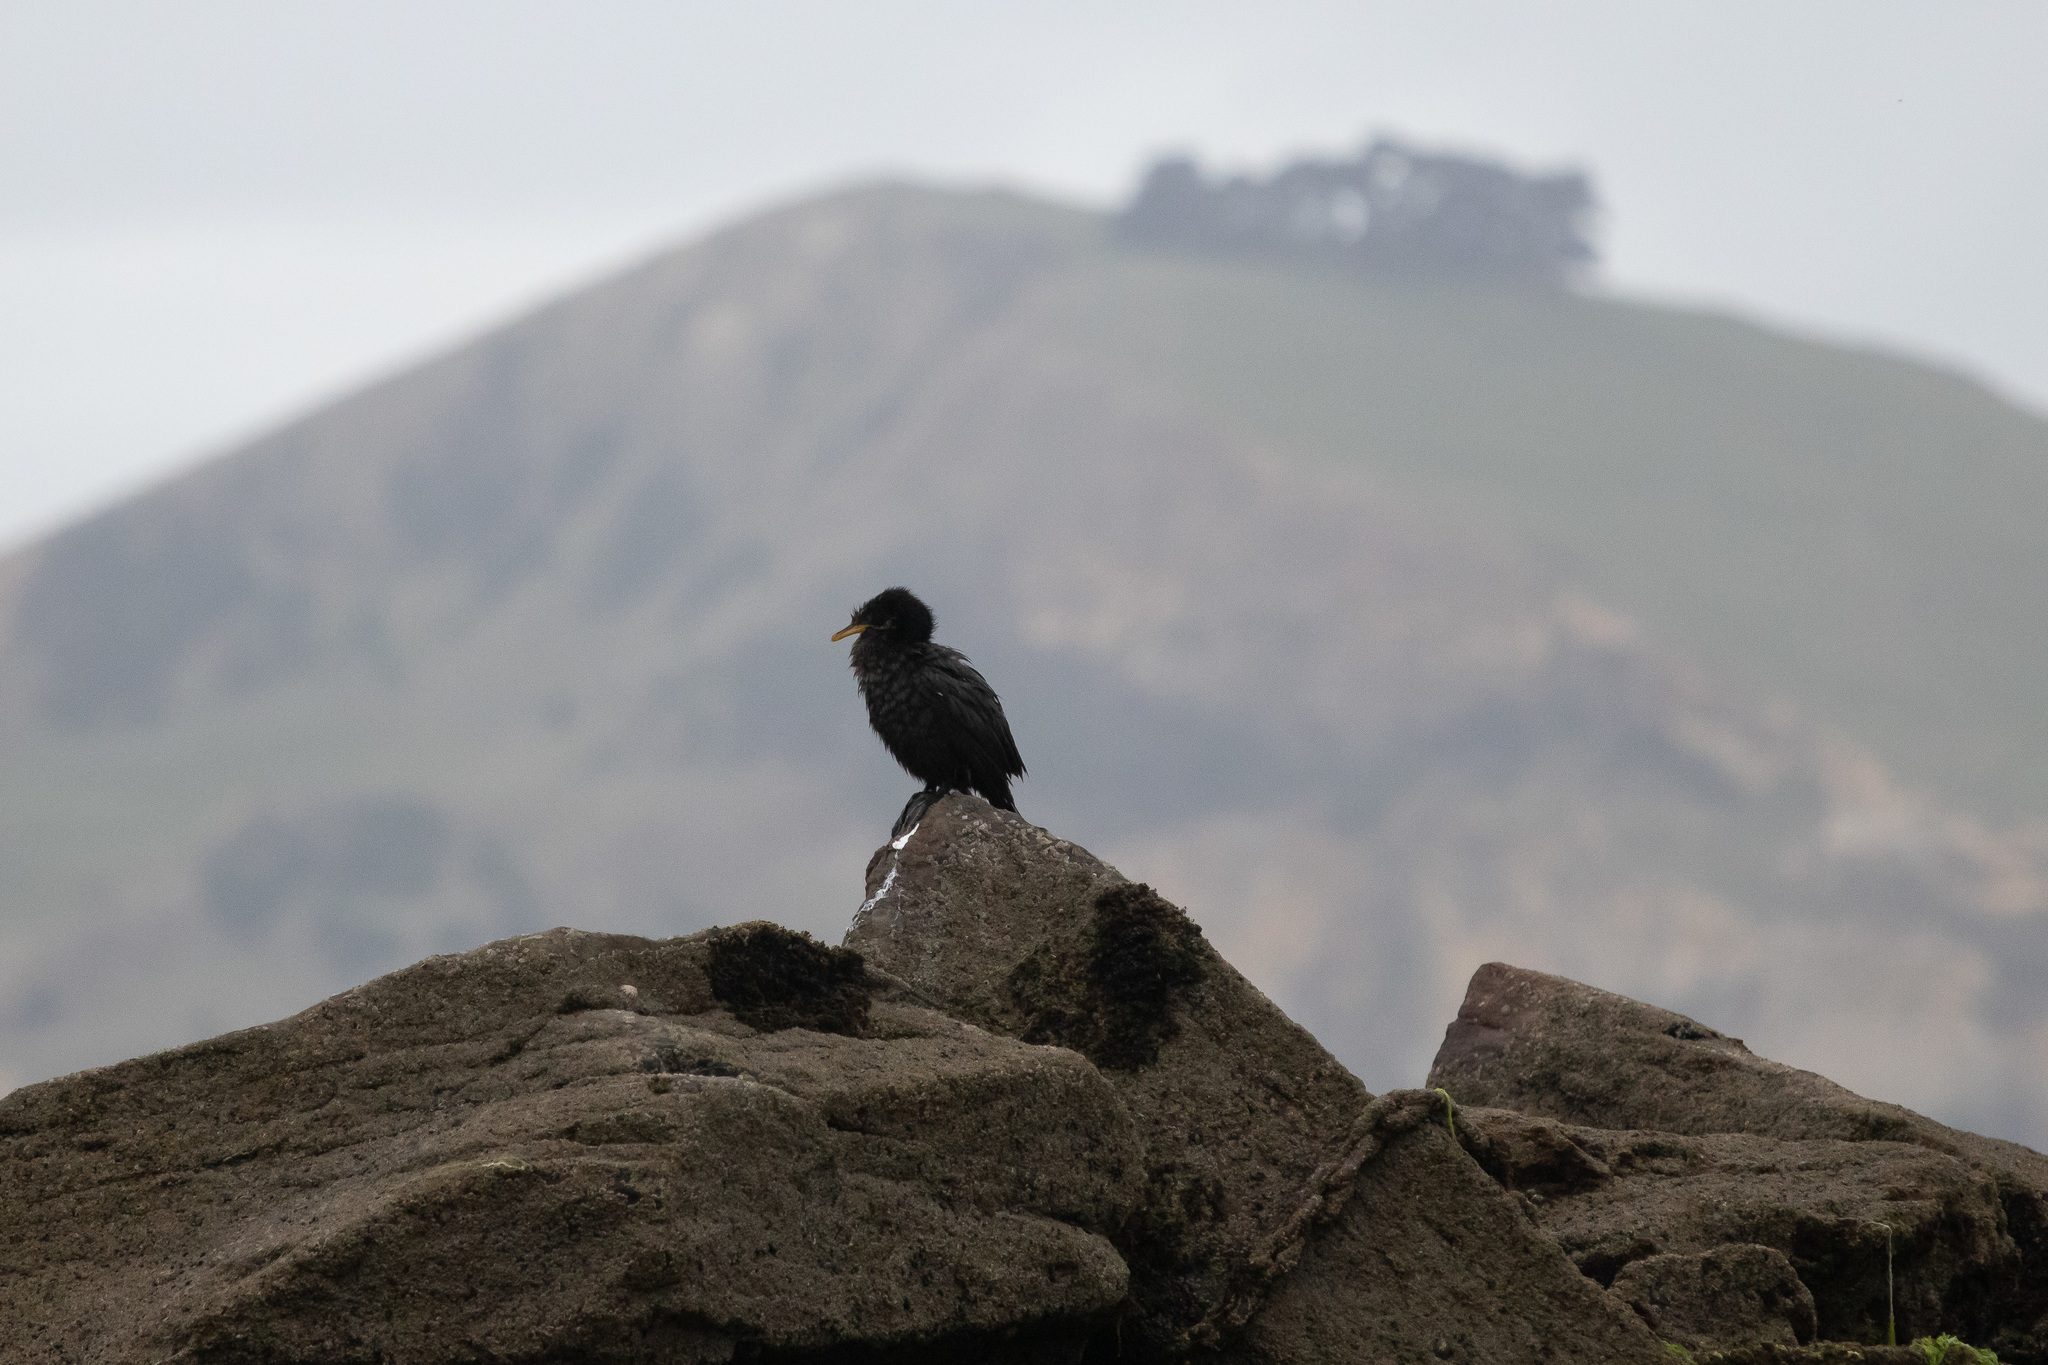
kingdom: Animalia
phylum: Chordata
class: Aves
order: Suliformes
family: Phalacrocoracidae
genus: Microcarbo
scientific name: Microcarbo melanoleucos
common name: Little pied cormorant
